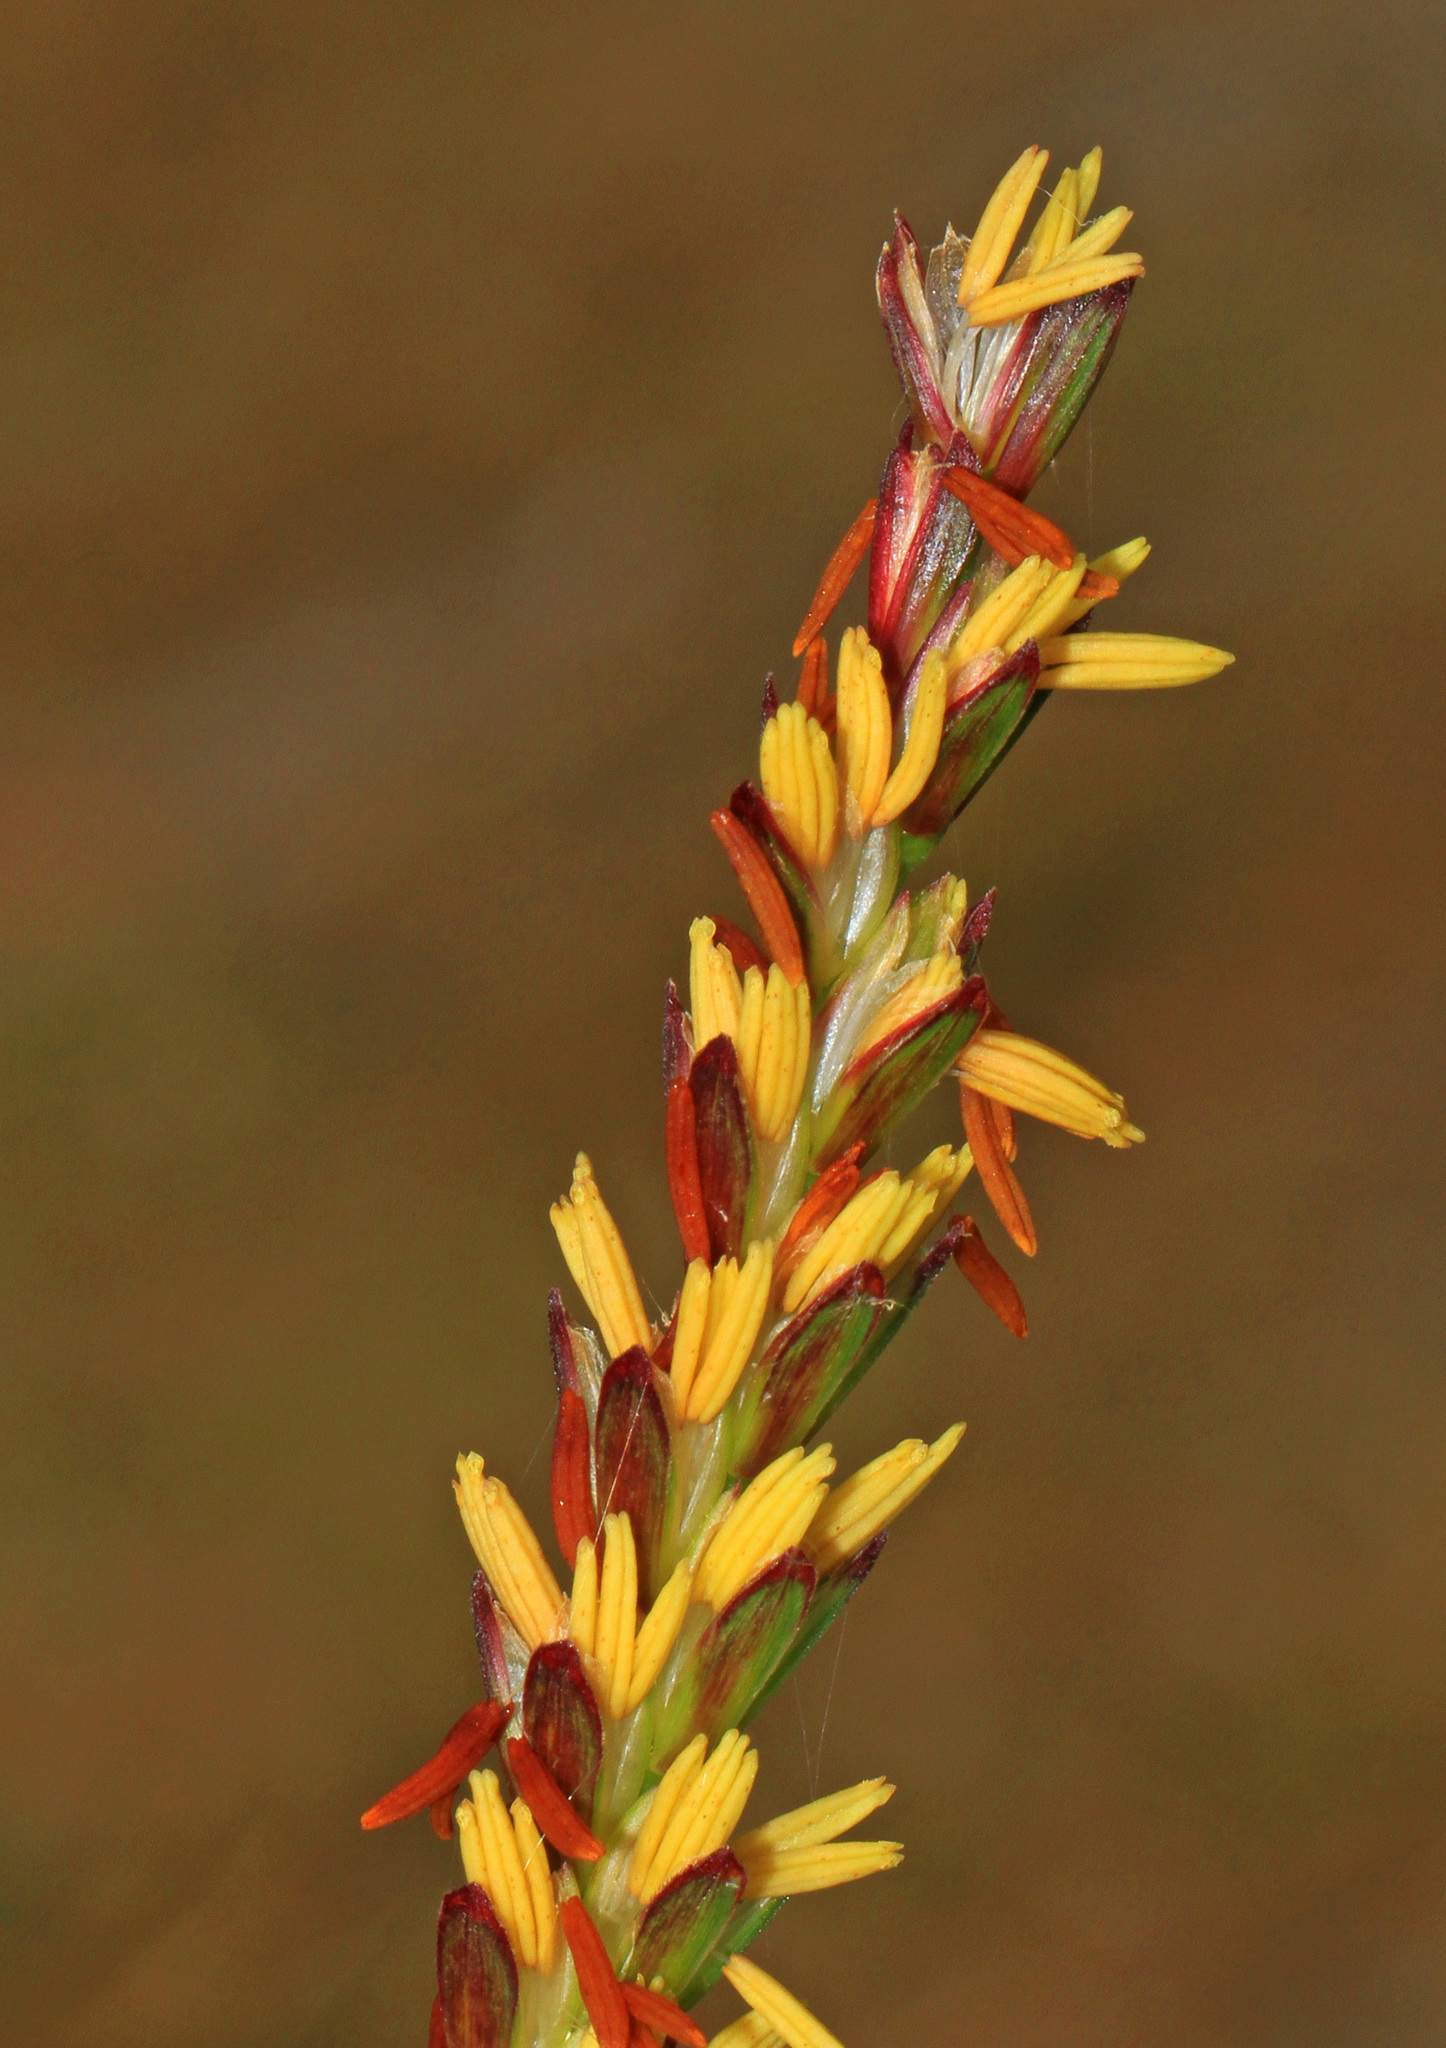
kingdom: Plantae
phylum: Tracheophyta
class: Liliopsida
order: Poales
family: Poaceae
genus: Tripsacum
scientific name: Tripsacum dactyloides
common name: Buffalo-grass
